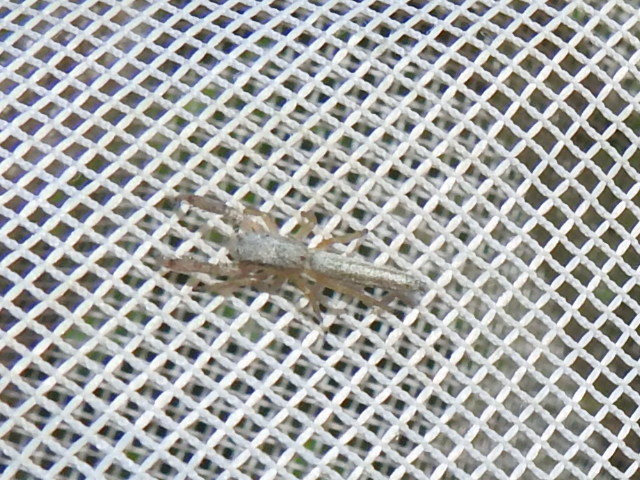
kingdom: Animalia
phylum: Arthropoda
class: Arachnida
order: Araneae
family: Salticidae
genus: Marpissa
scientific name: Marpissa pikei
